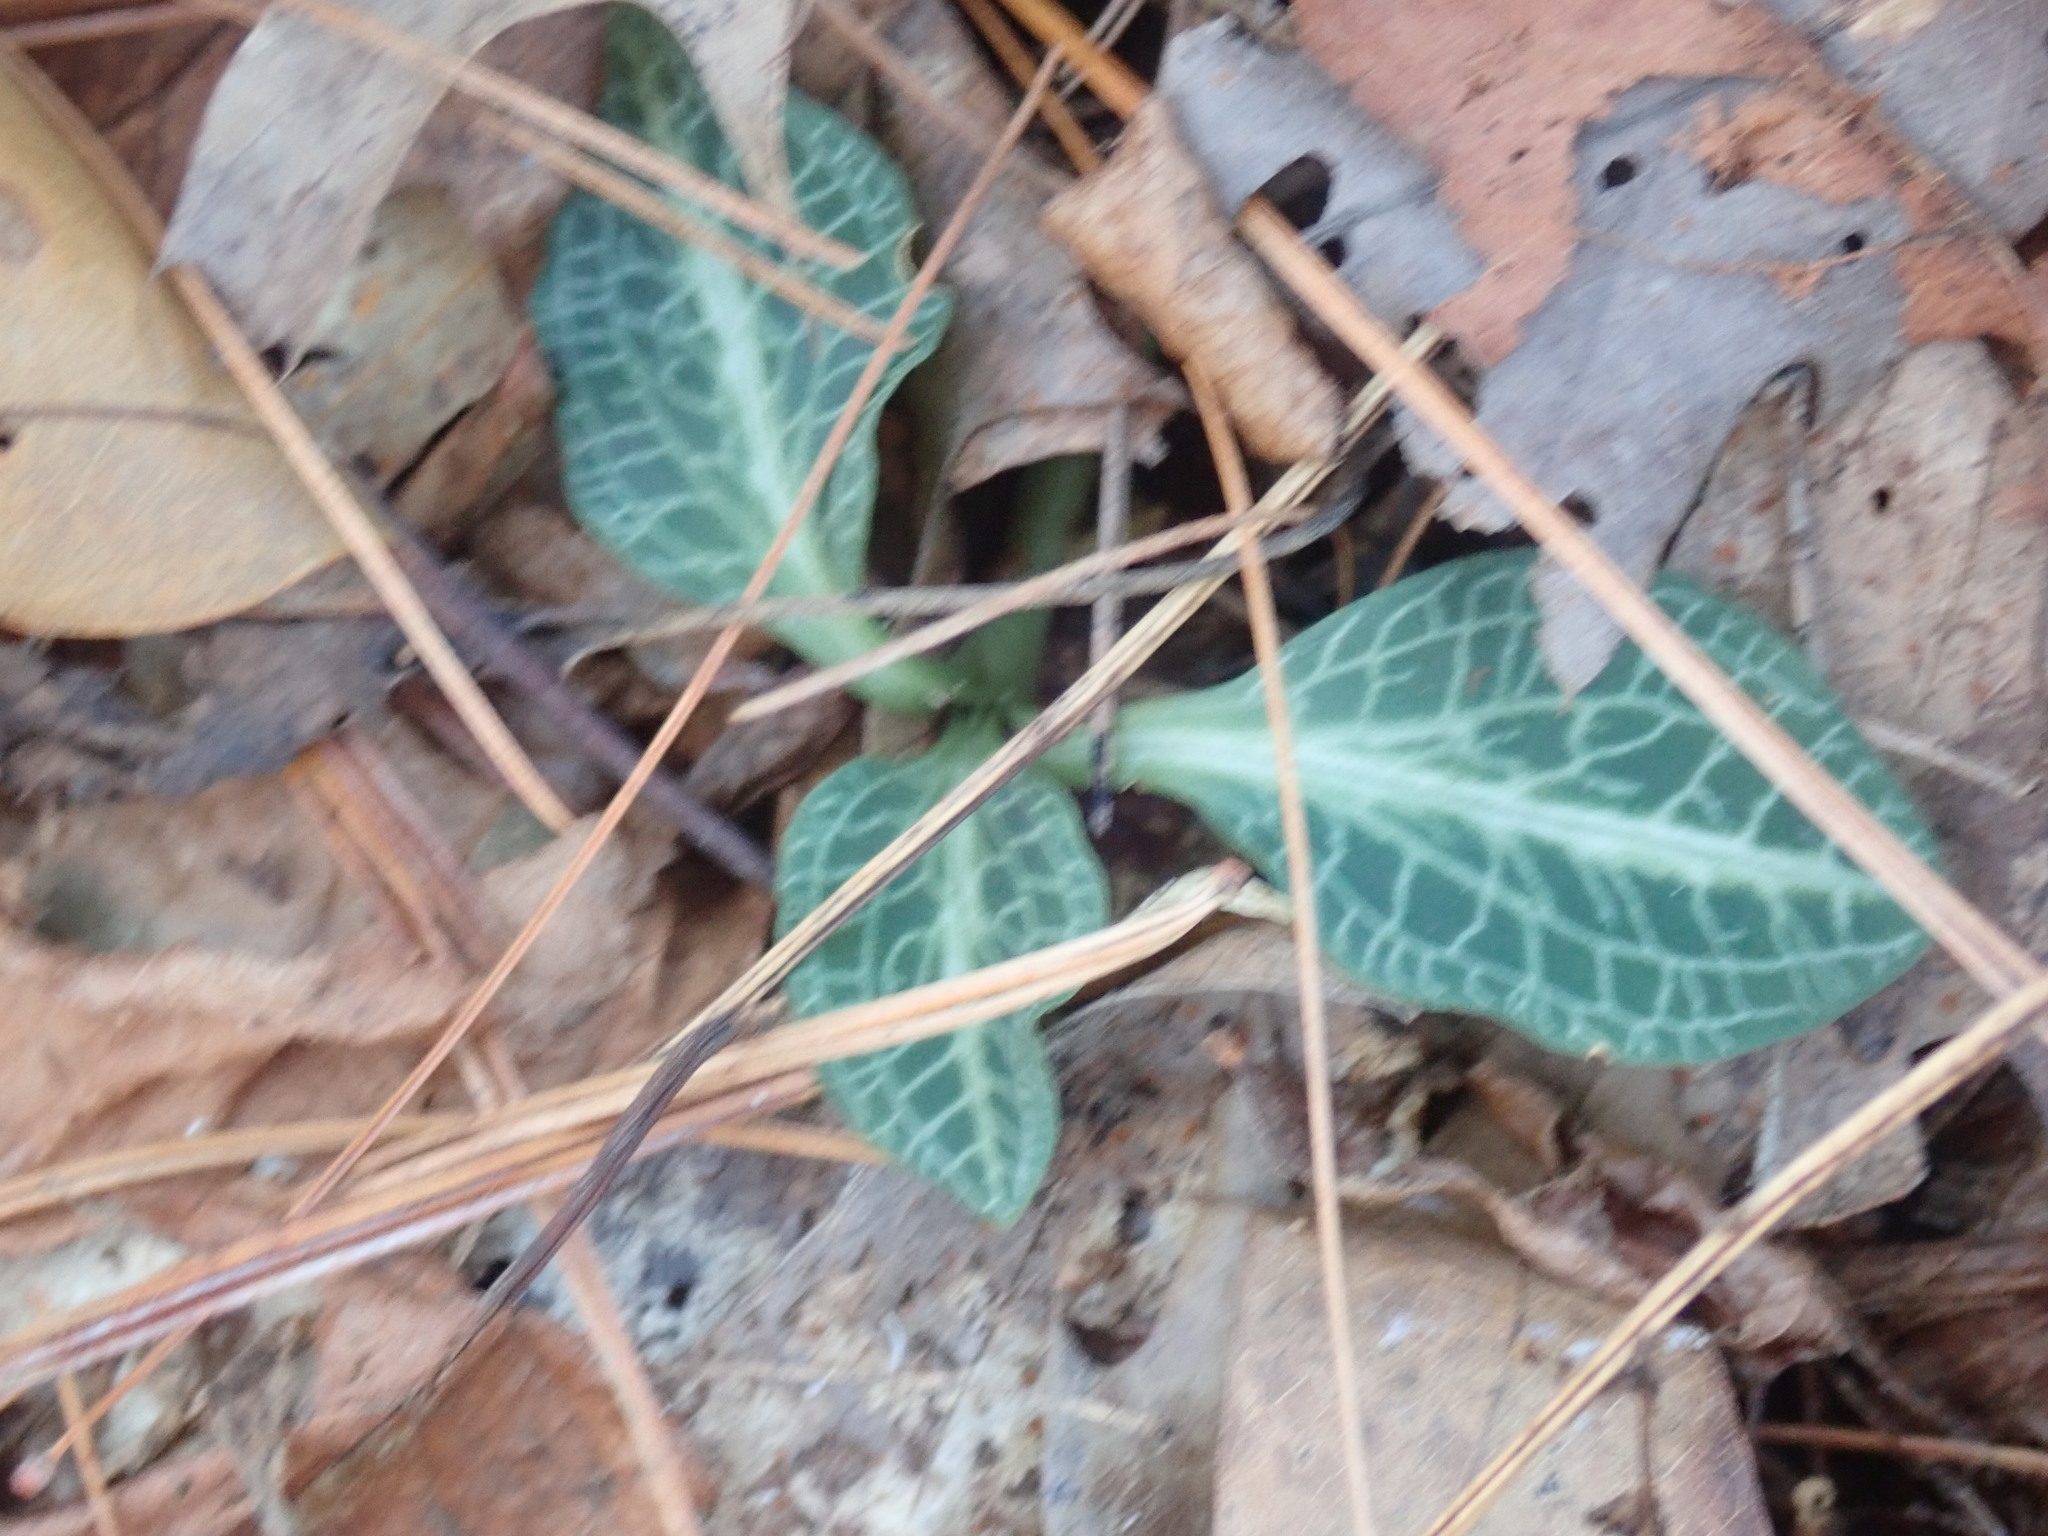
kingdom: Plantae
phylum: Tracheophyta
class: Liliopsida
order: Asparagales
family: Orchidaceae
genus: Goodyera
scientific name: Goodyera pubescens
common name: Downy rattlesnake-plantain
